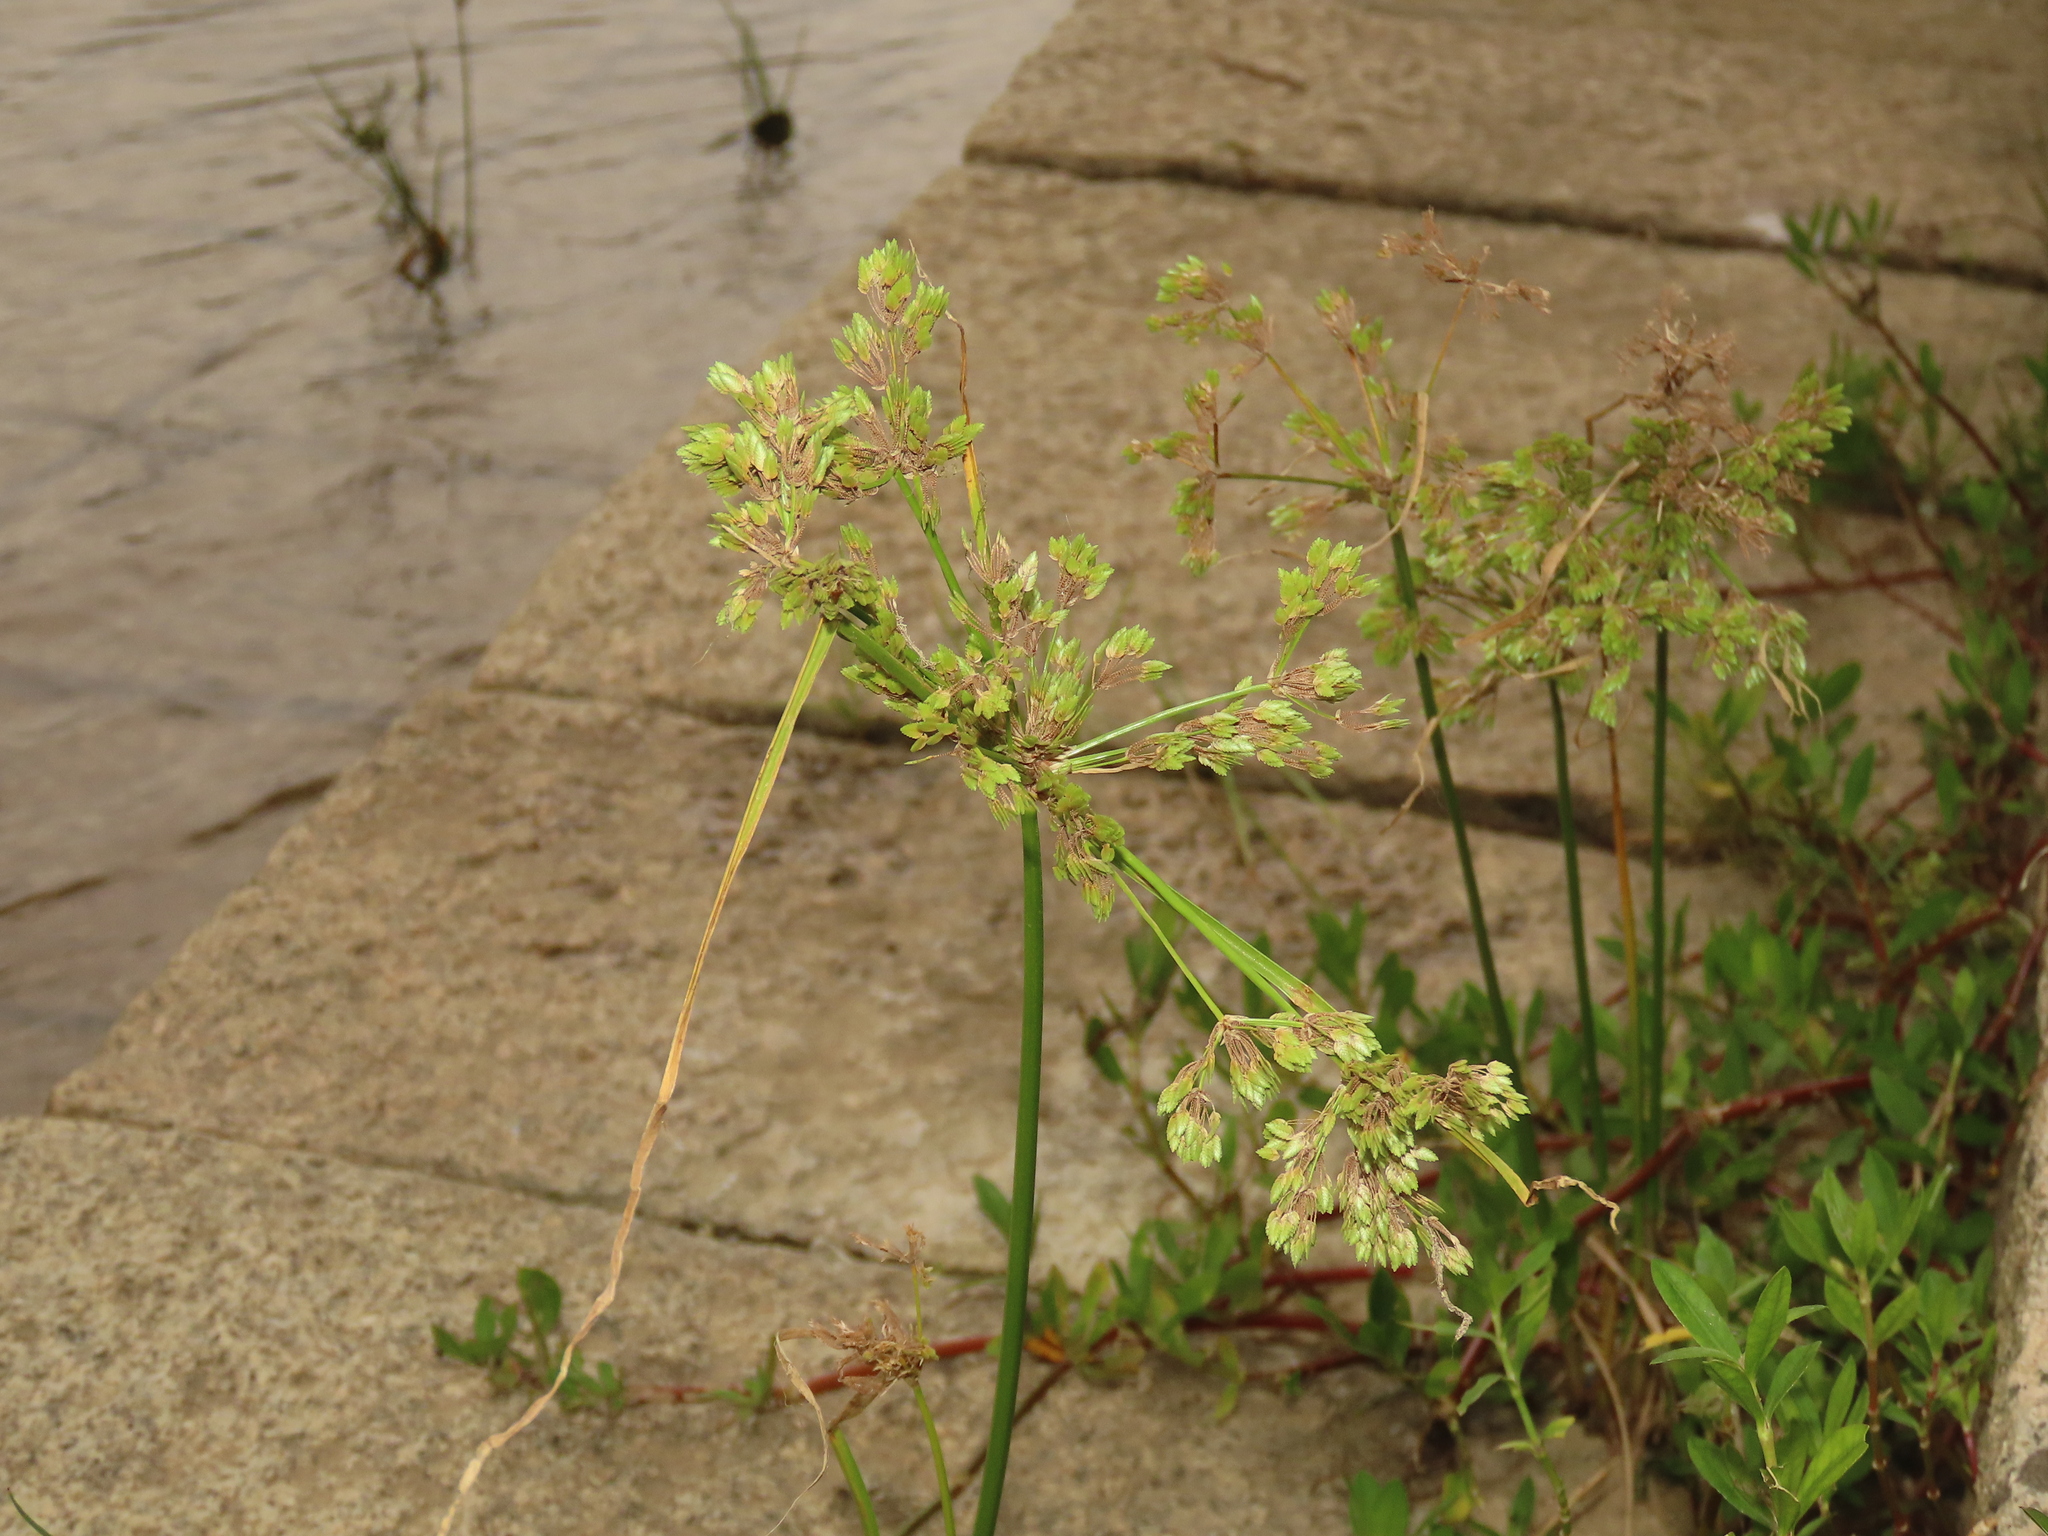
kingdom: Plantae
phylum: Tracheophyta
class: Liliopsida
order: Poales
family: Cyperaceae
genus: Cyperus
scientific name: Cyperus surinamensis
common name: Tropical flat sedge
